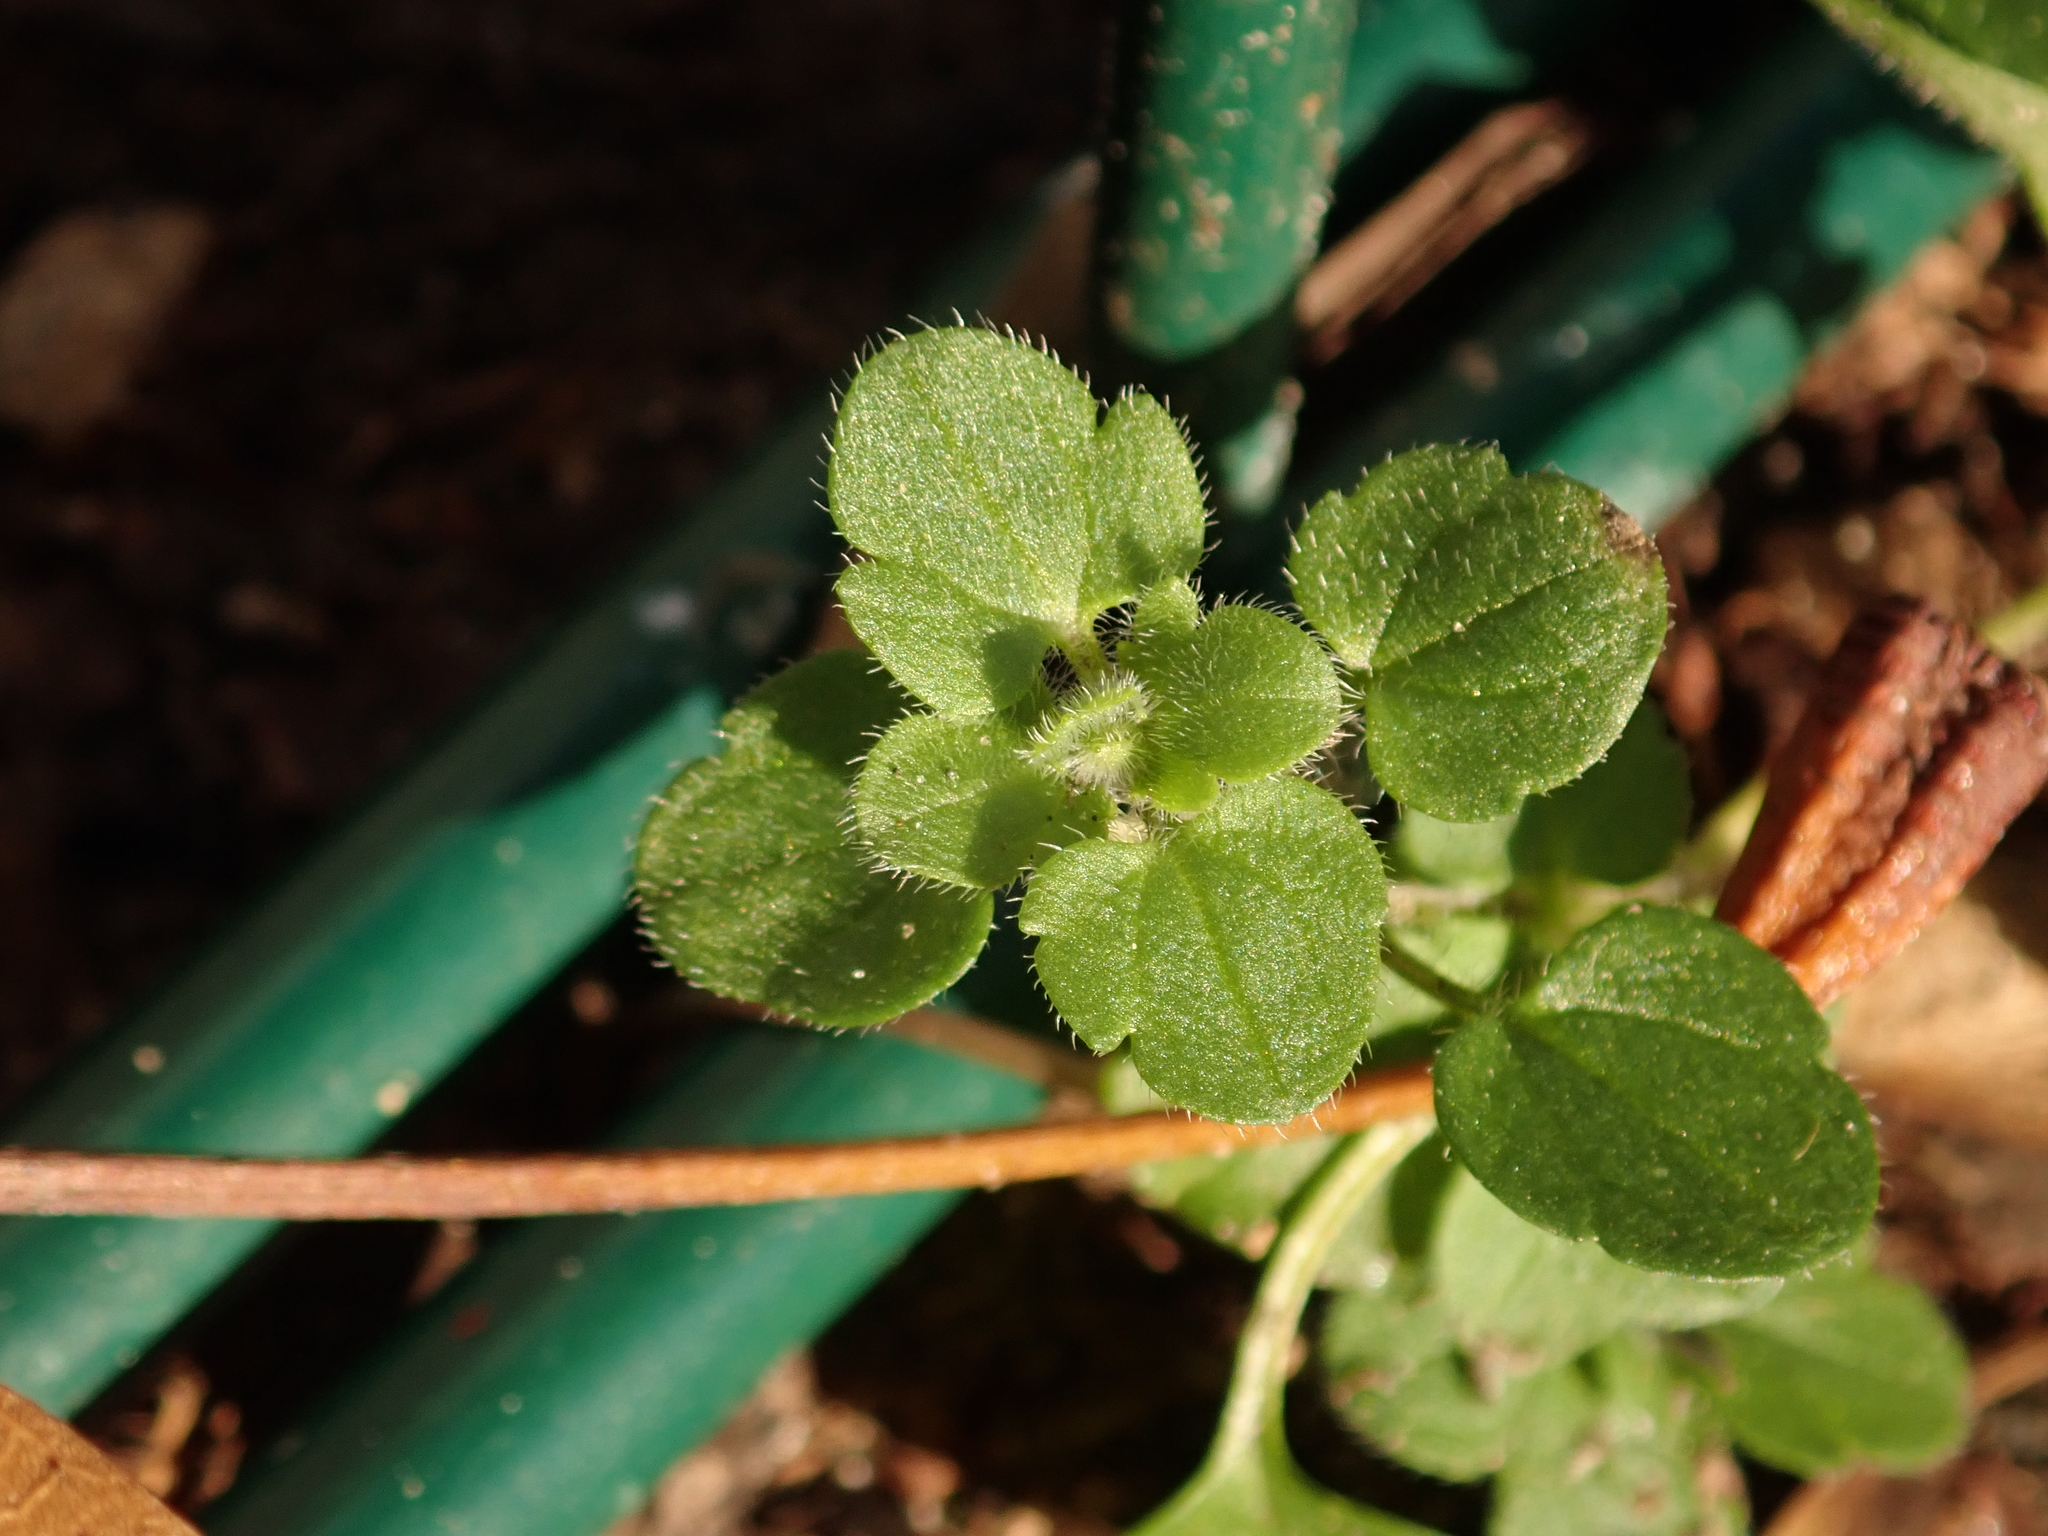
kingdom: Plantae
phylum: Tracheophyta
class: Magnoliopsida
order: Lamiales
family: Plantaginaceae
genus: Veronica
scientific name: Veronica hederifolia
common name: Ivy-leaved speedwell
